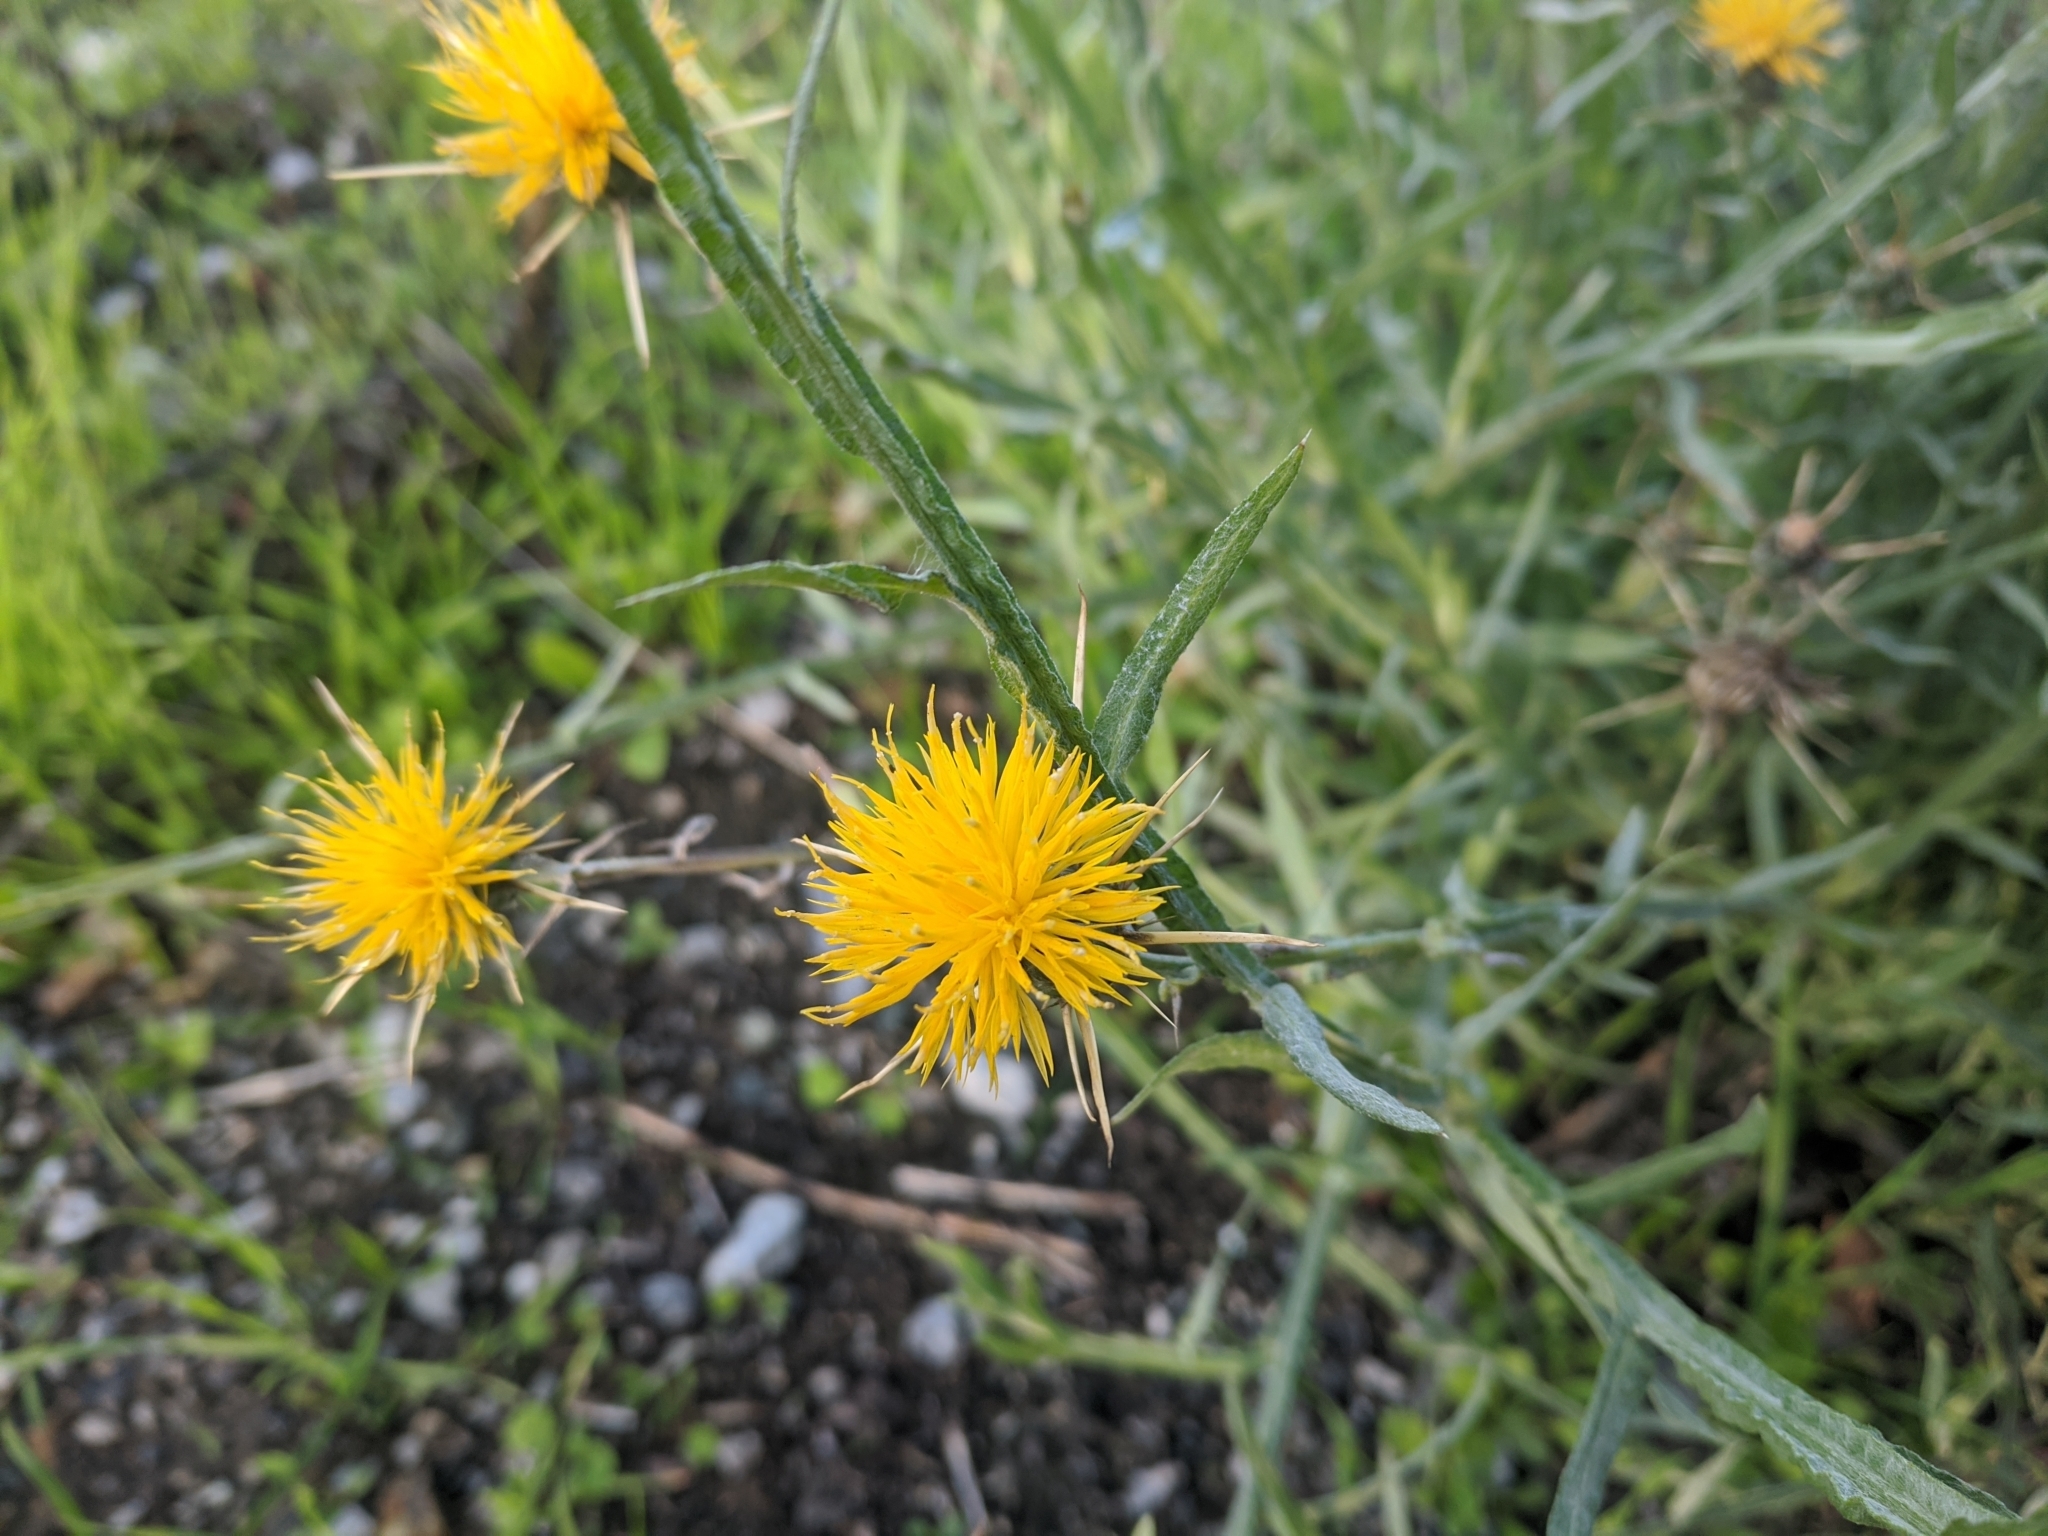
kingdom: Plantae
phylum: Tracheophyta
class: Magnoliopsida
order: Asterales
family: Asteraceae
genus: Centaurea
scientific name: Centaurea solstitialis
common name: Yellow star-thistle
